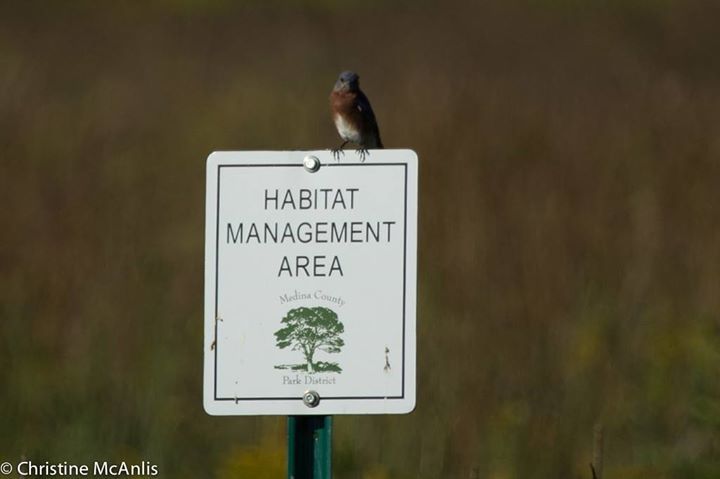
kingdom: Animalia
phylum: Chordata
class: Aves
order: Passeriformes
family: Turdidae
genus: Sialia
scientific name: Sialia sialis
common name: Eastern bluebird
